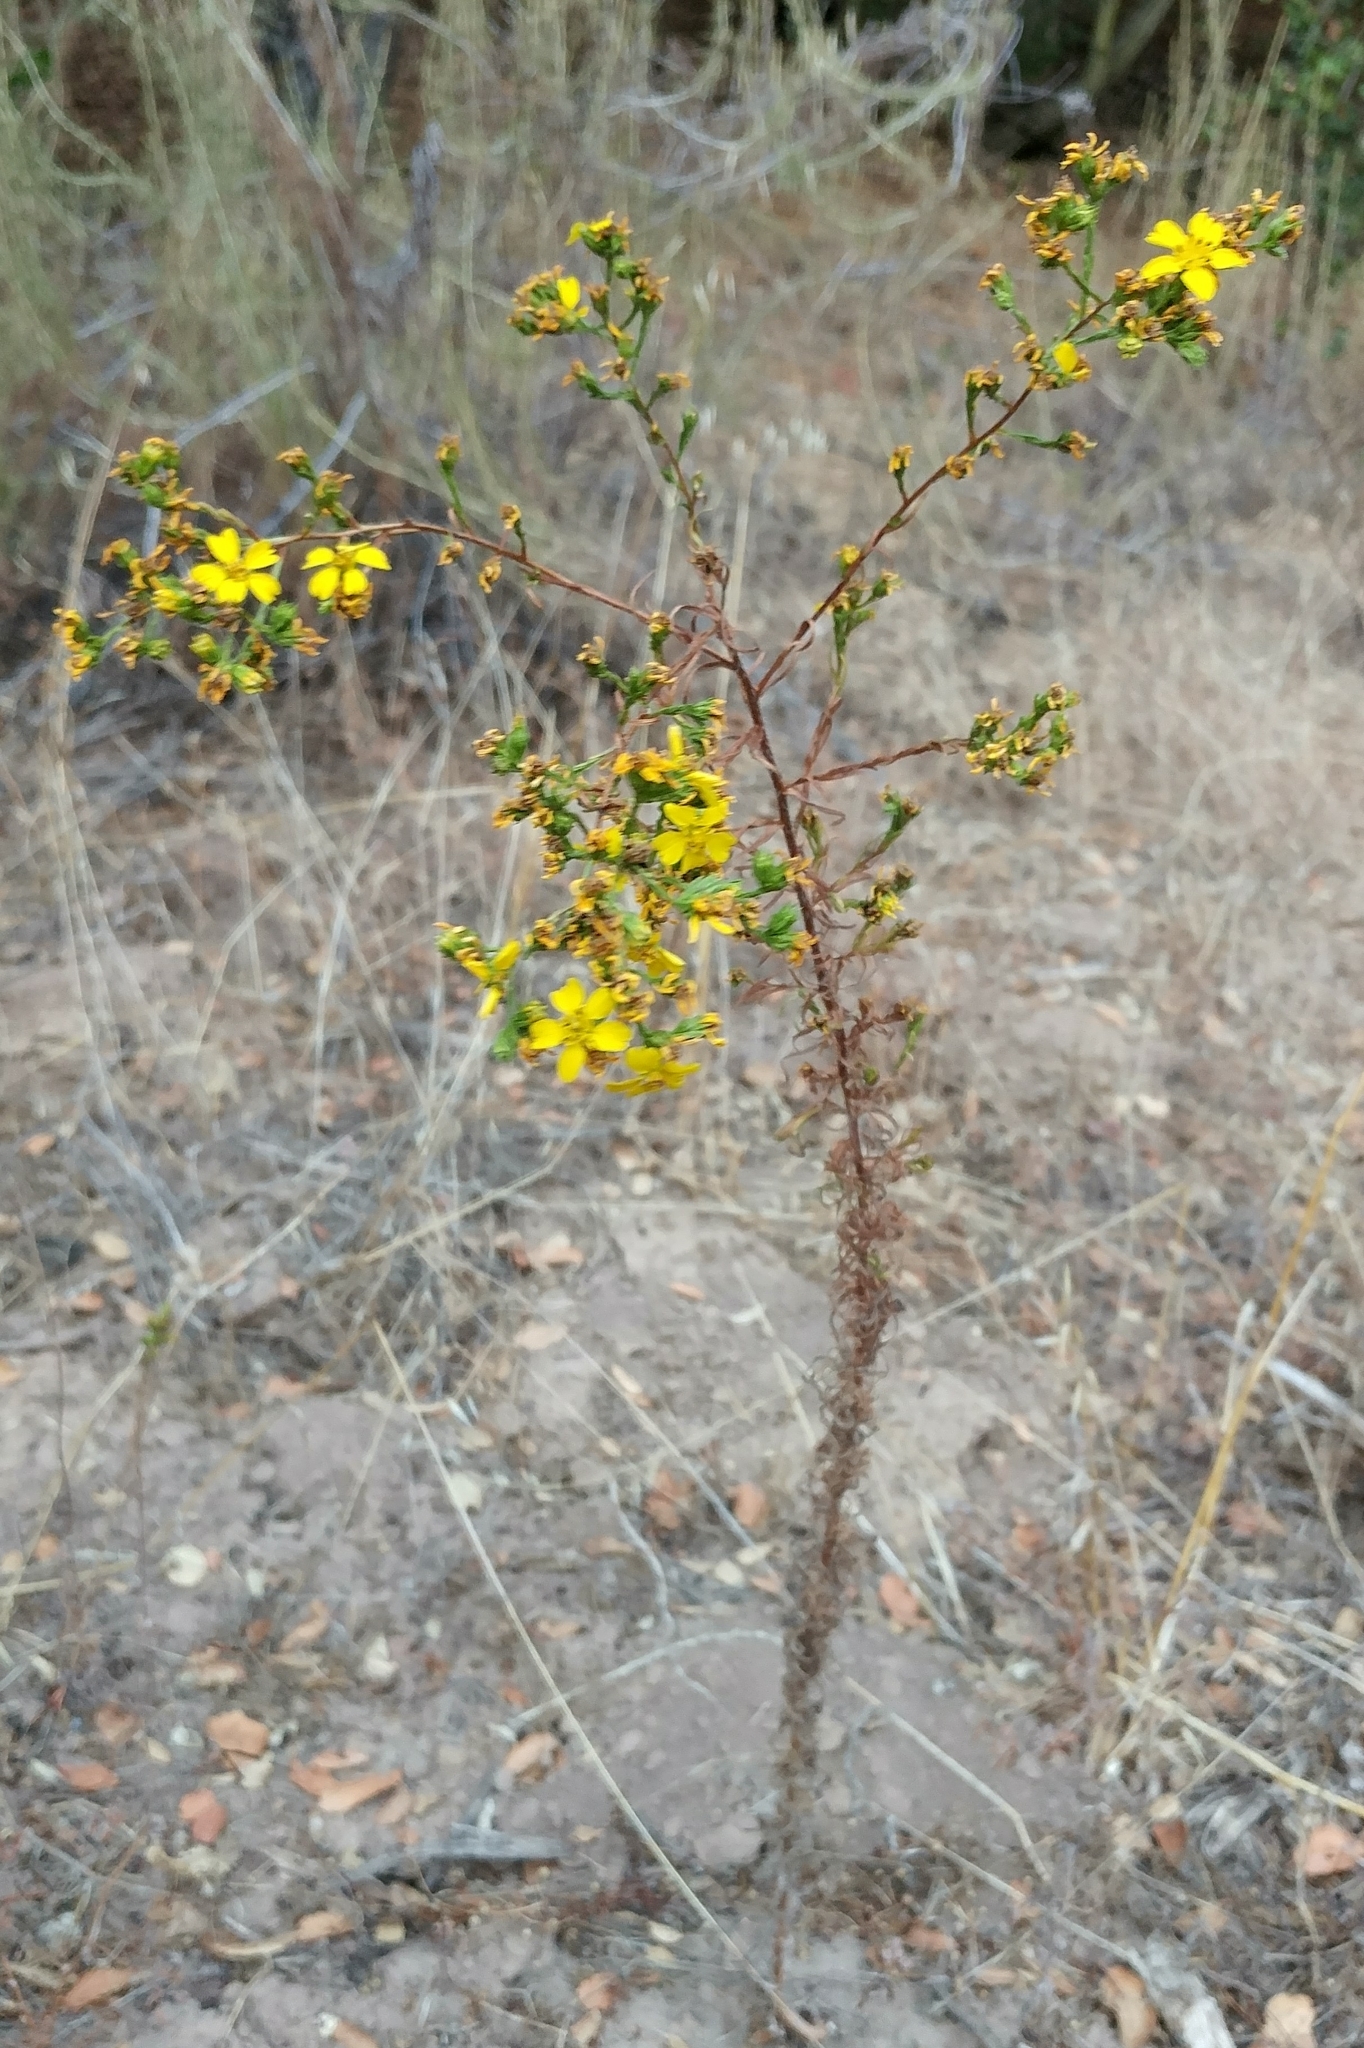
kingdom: Plantae
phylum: Tracheophyta
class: Magnoliopsida
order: Asterales
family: Asteraceae
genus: Deinandra
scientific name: Deinandra fasciculata
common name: Clustered tarweed
